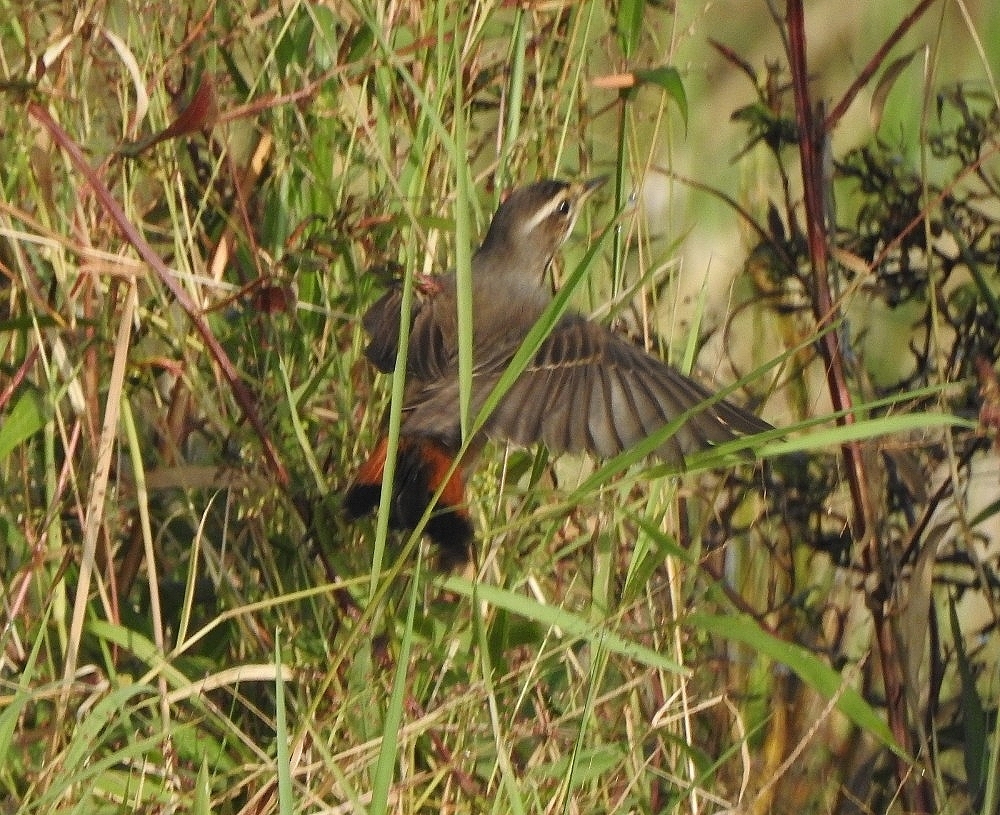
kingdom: Animalia
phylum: Chordata
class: Aves
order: Passeriformes
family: Muscicapidae
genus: Luscinia
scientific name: Luscinia svecica
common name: Bluethroat
